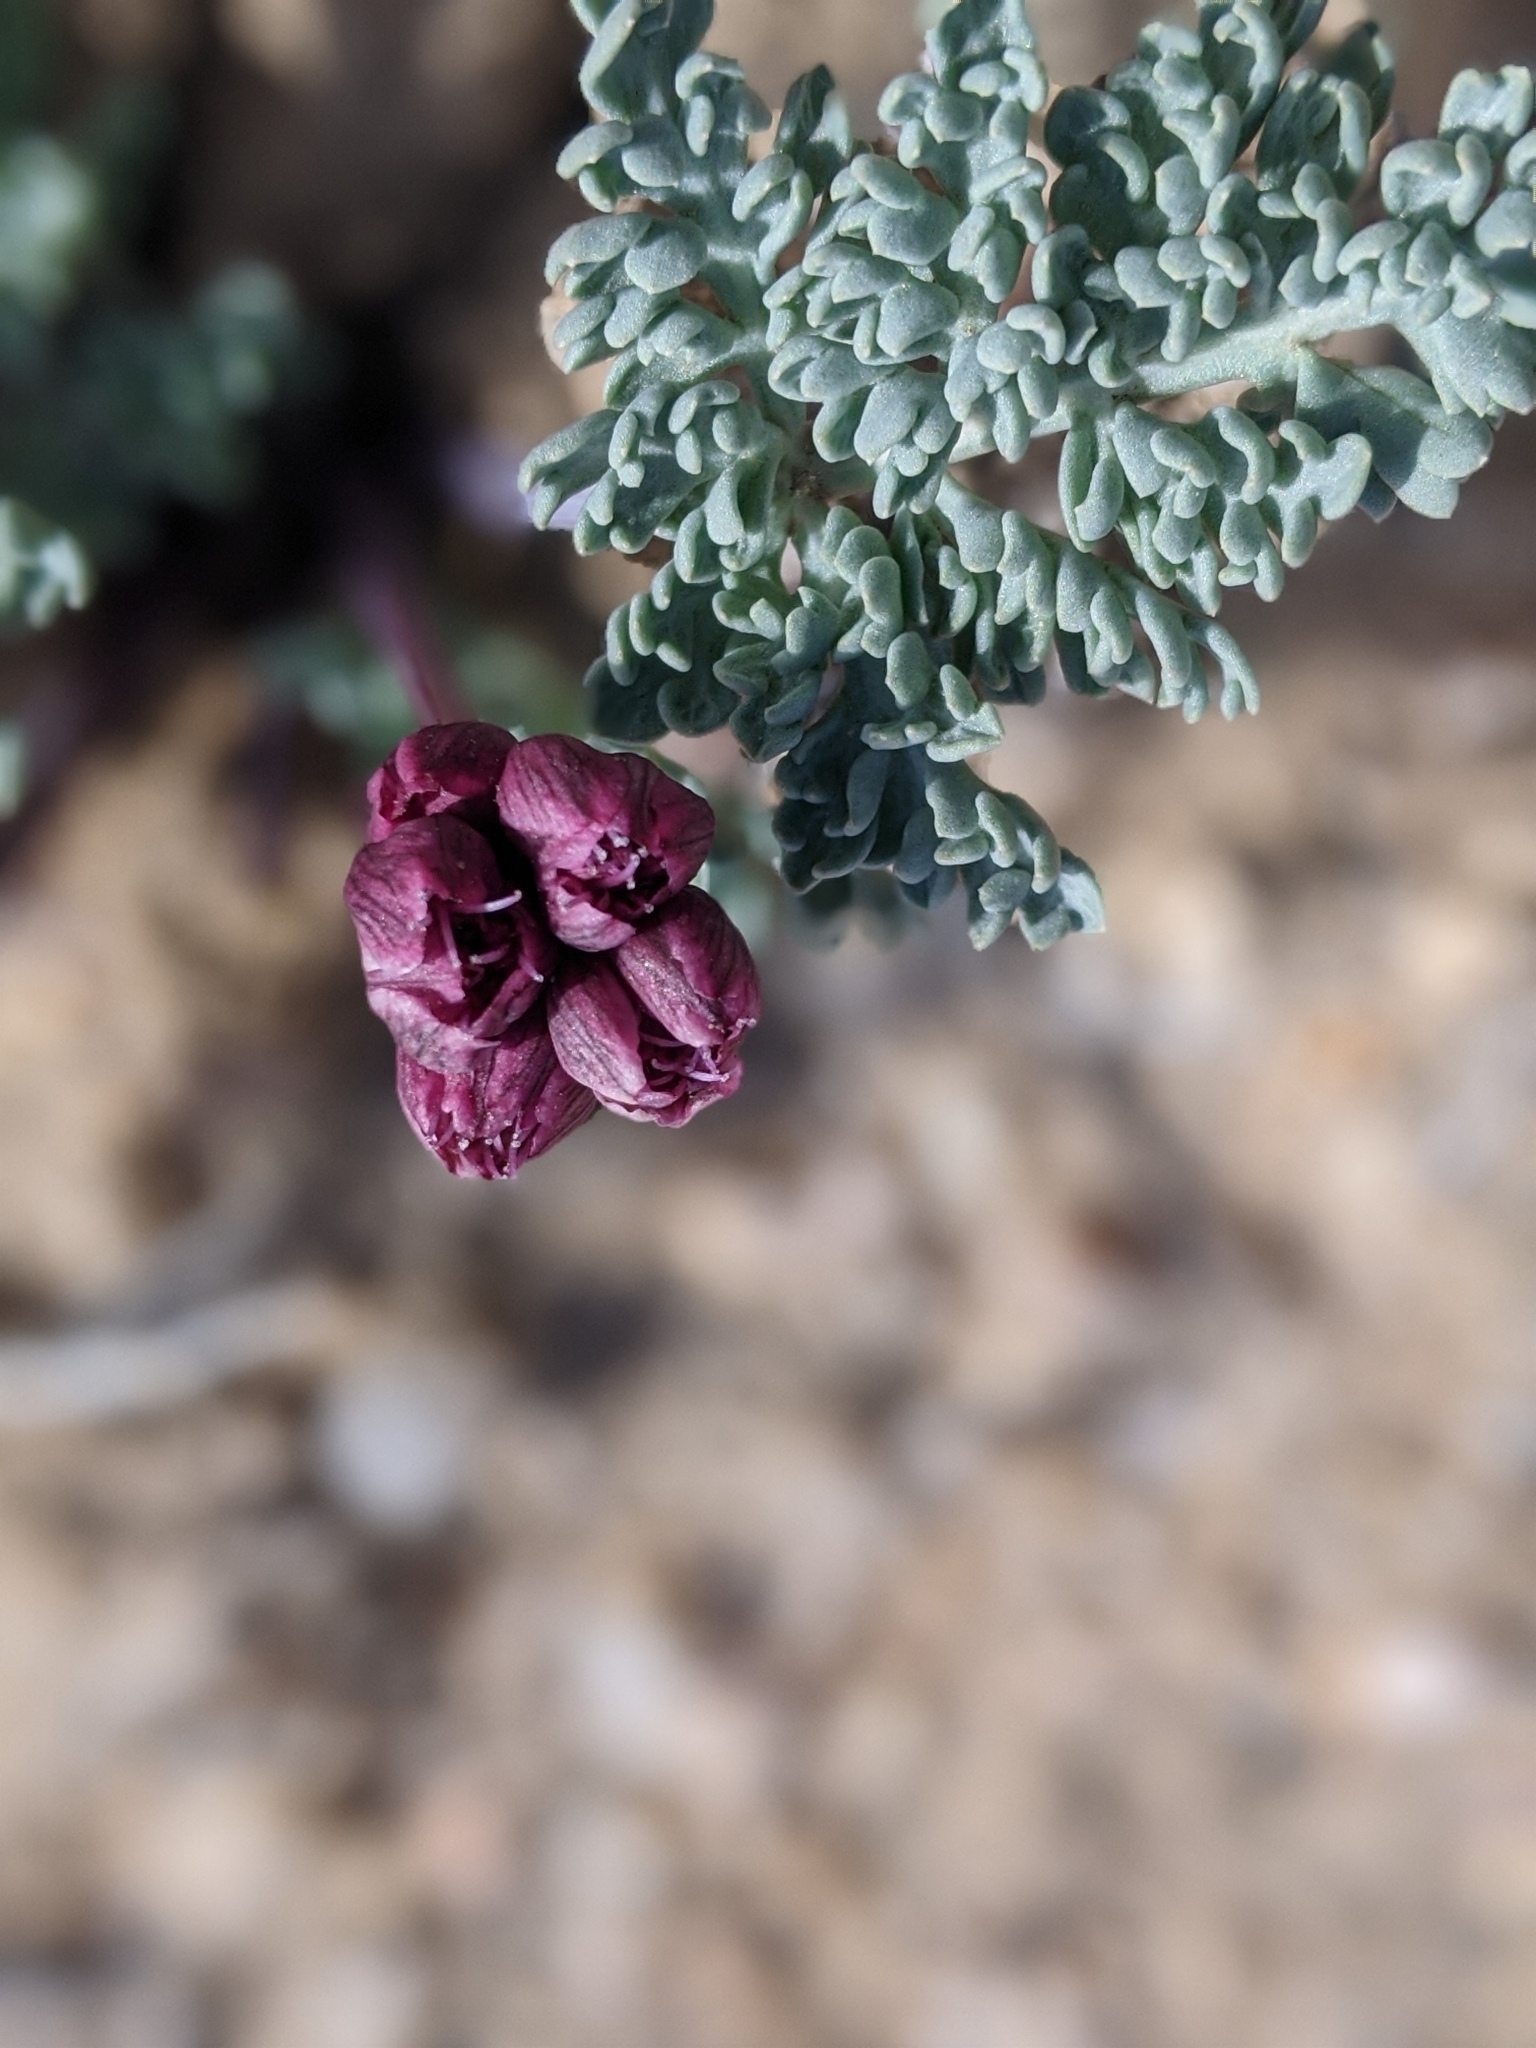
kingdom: Plantae
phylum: Tracheophyta
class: Magnoliopsida
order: Apiales
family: Apiaceae
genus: Vesper
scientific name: Vesper multinervatus
